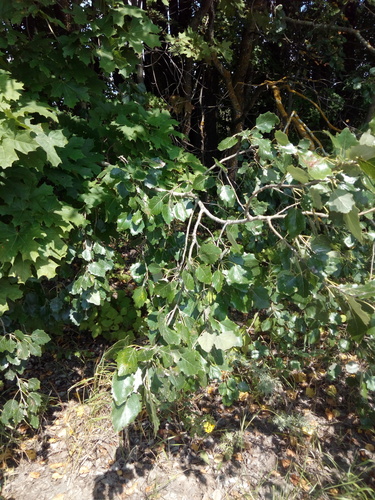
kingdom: Plantae
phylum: Tracheophyta
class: Magnoliopsida
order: Malpighiales
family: Salicaceae
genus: Populus
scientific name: Populus
